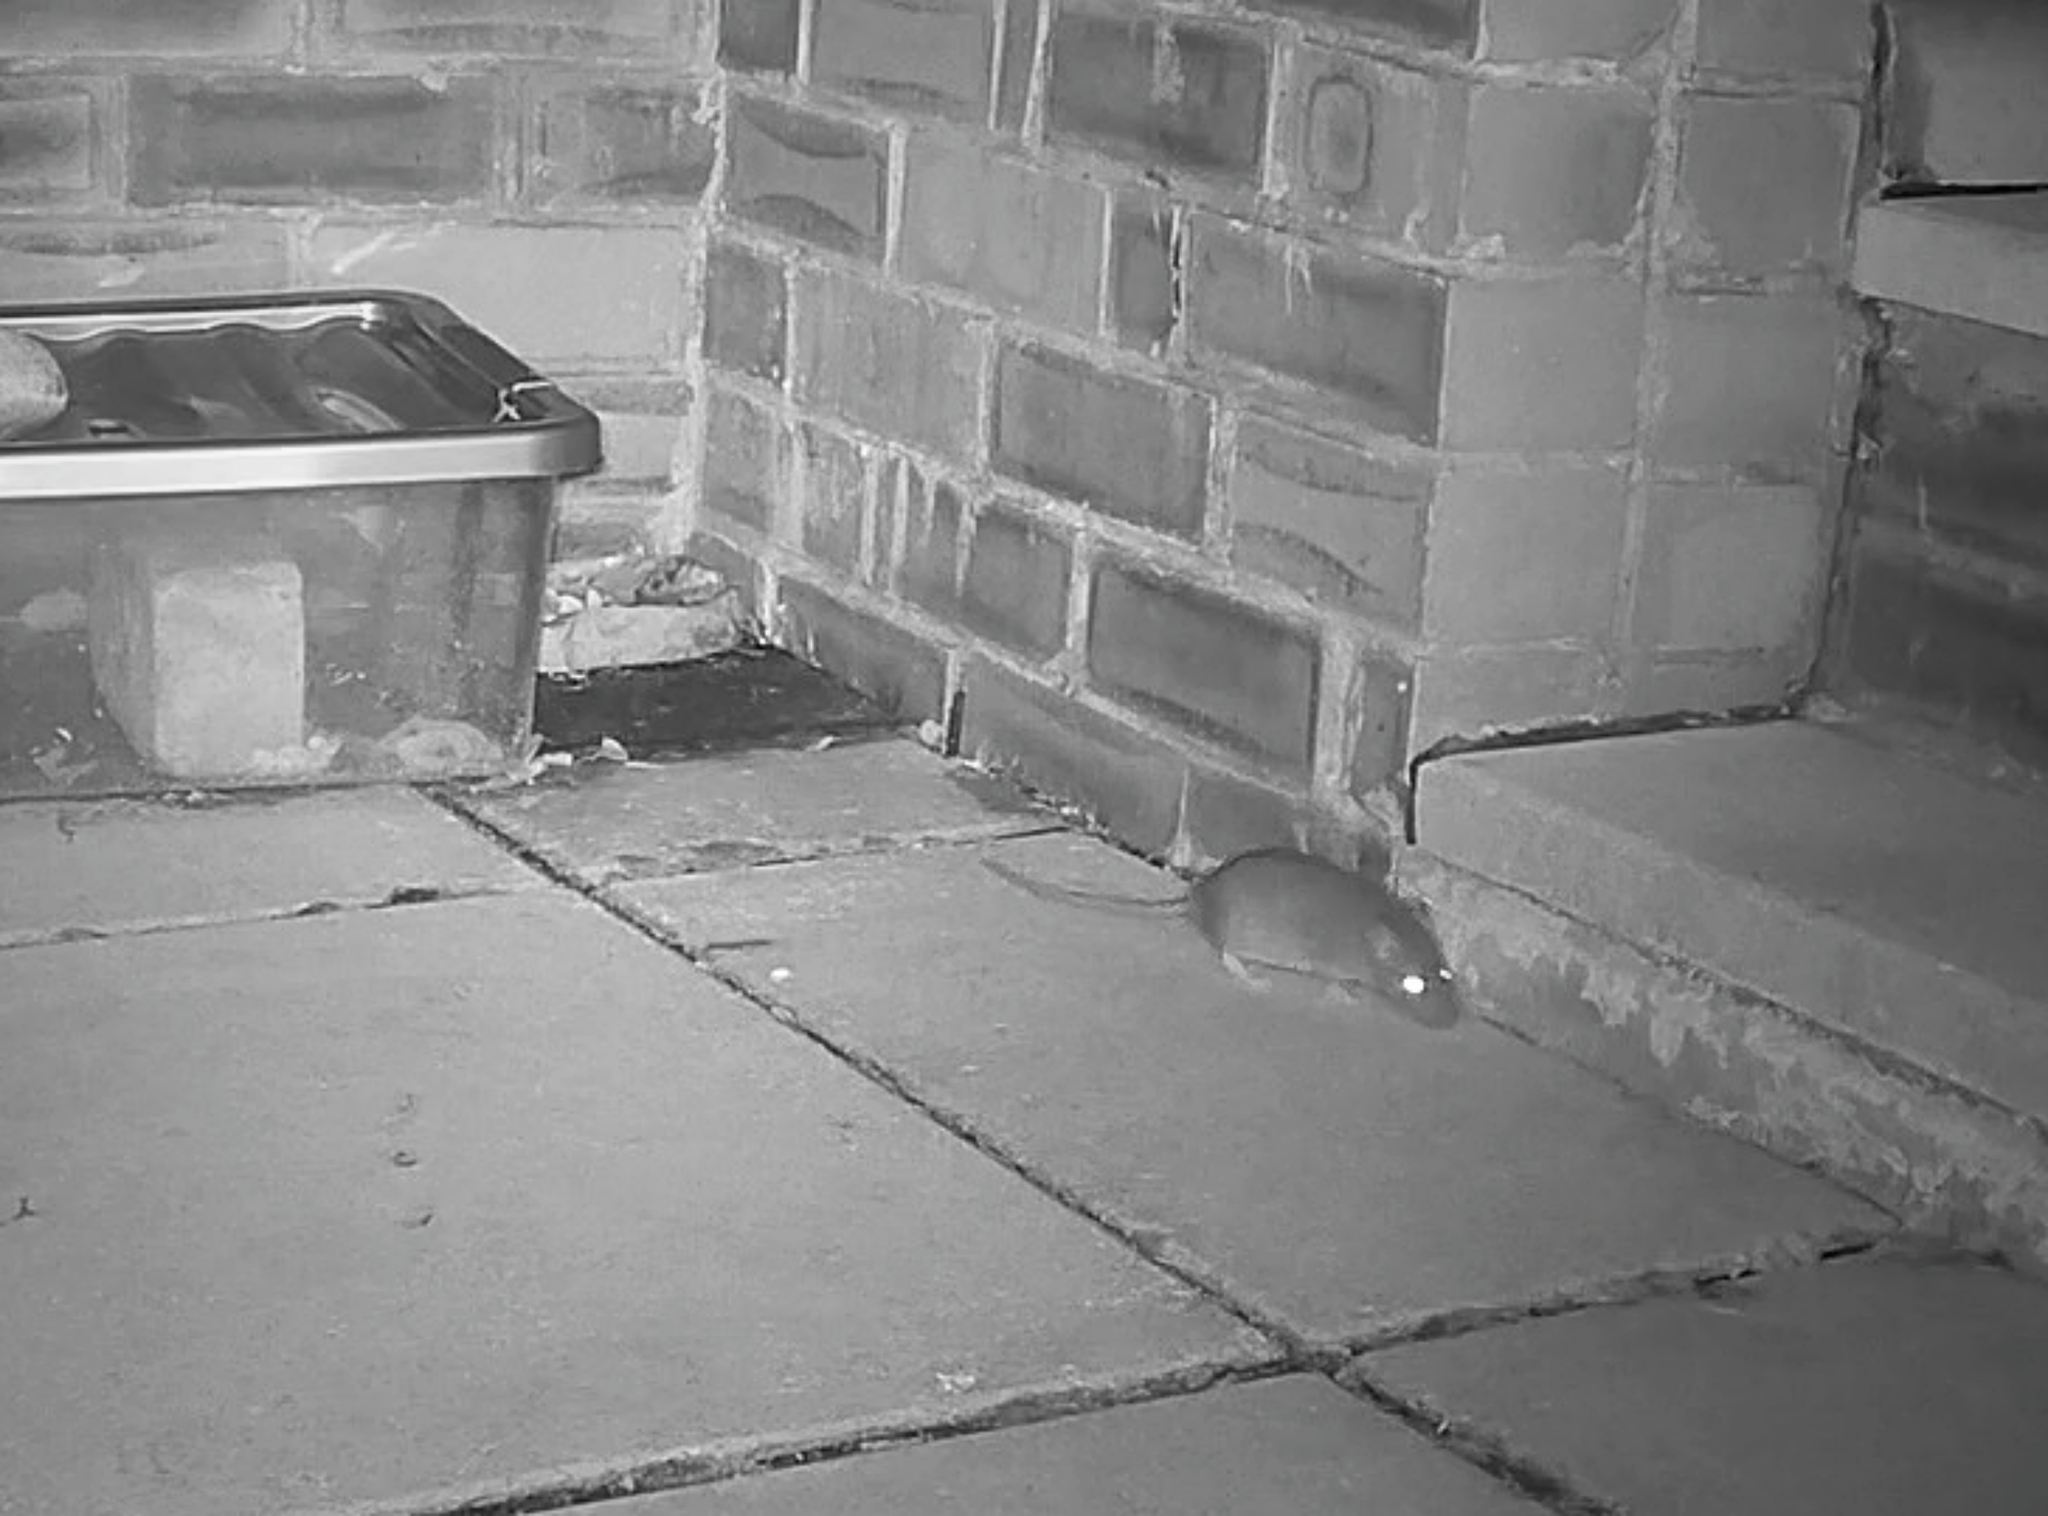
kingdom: Animalia
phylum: Chordata
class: Mammalia
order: Rodentia
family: Muridae
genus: Rattus
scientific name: Rattus norvegicus
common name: Brown rat
